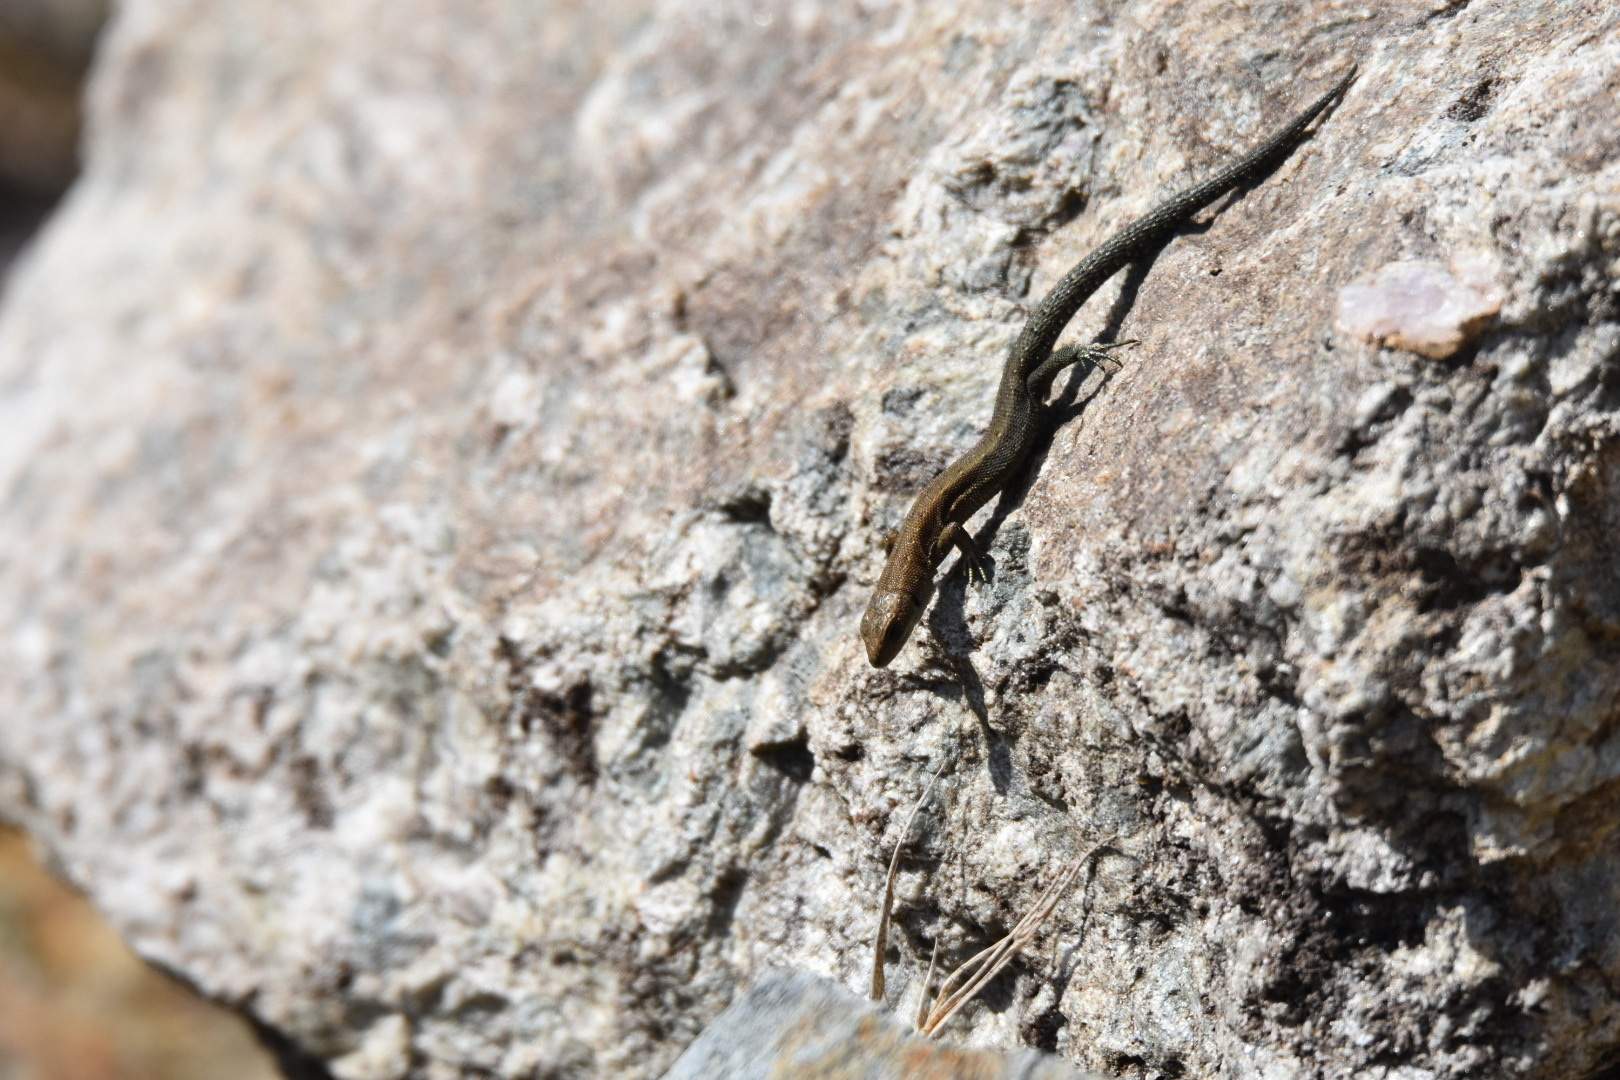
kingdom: Animalia
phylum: Chordata
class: Squamata
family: Lacertidae
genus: Zootoca
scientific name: Zootoca vivipara
